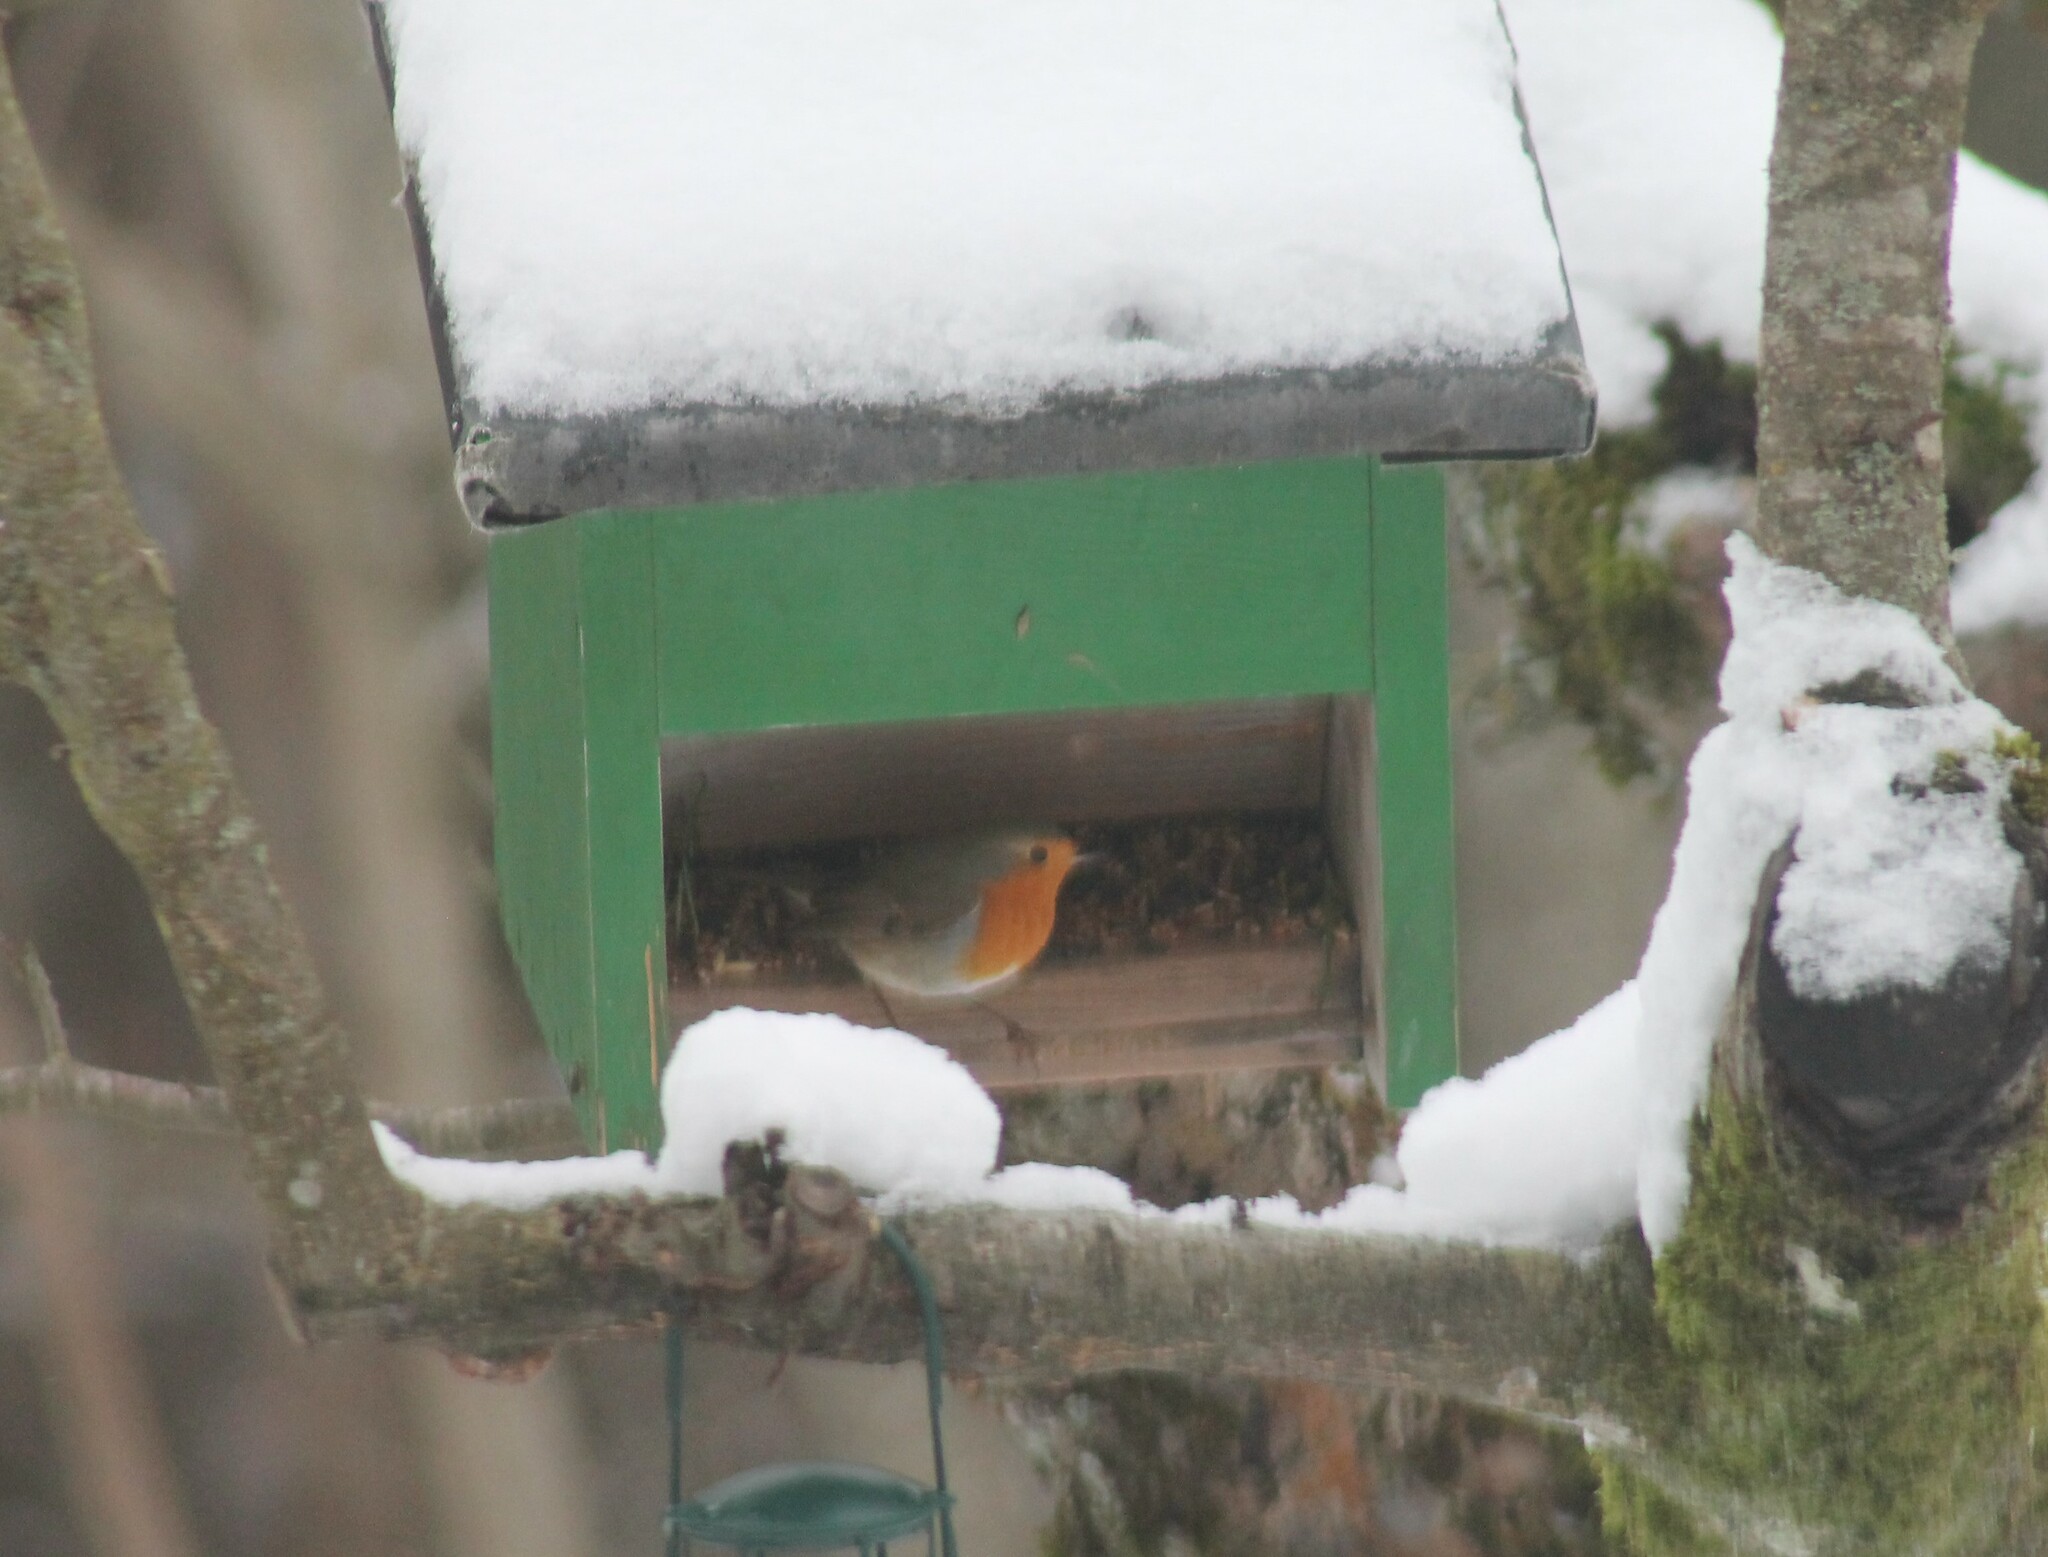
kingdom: Animalia
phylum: Chordata
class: Aves
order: Passeriformes
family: Muscicapidae
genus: Erithacus
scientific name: Erithacus rubecula
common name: European robin
